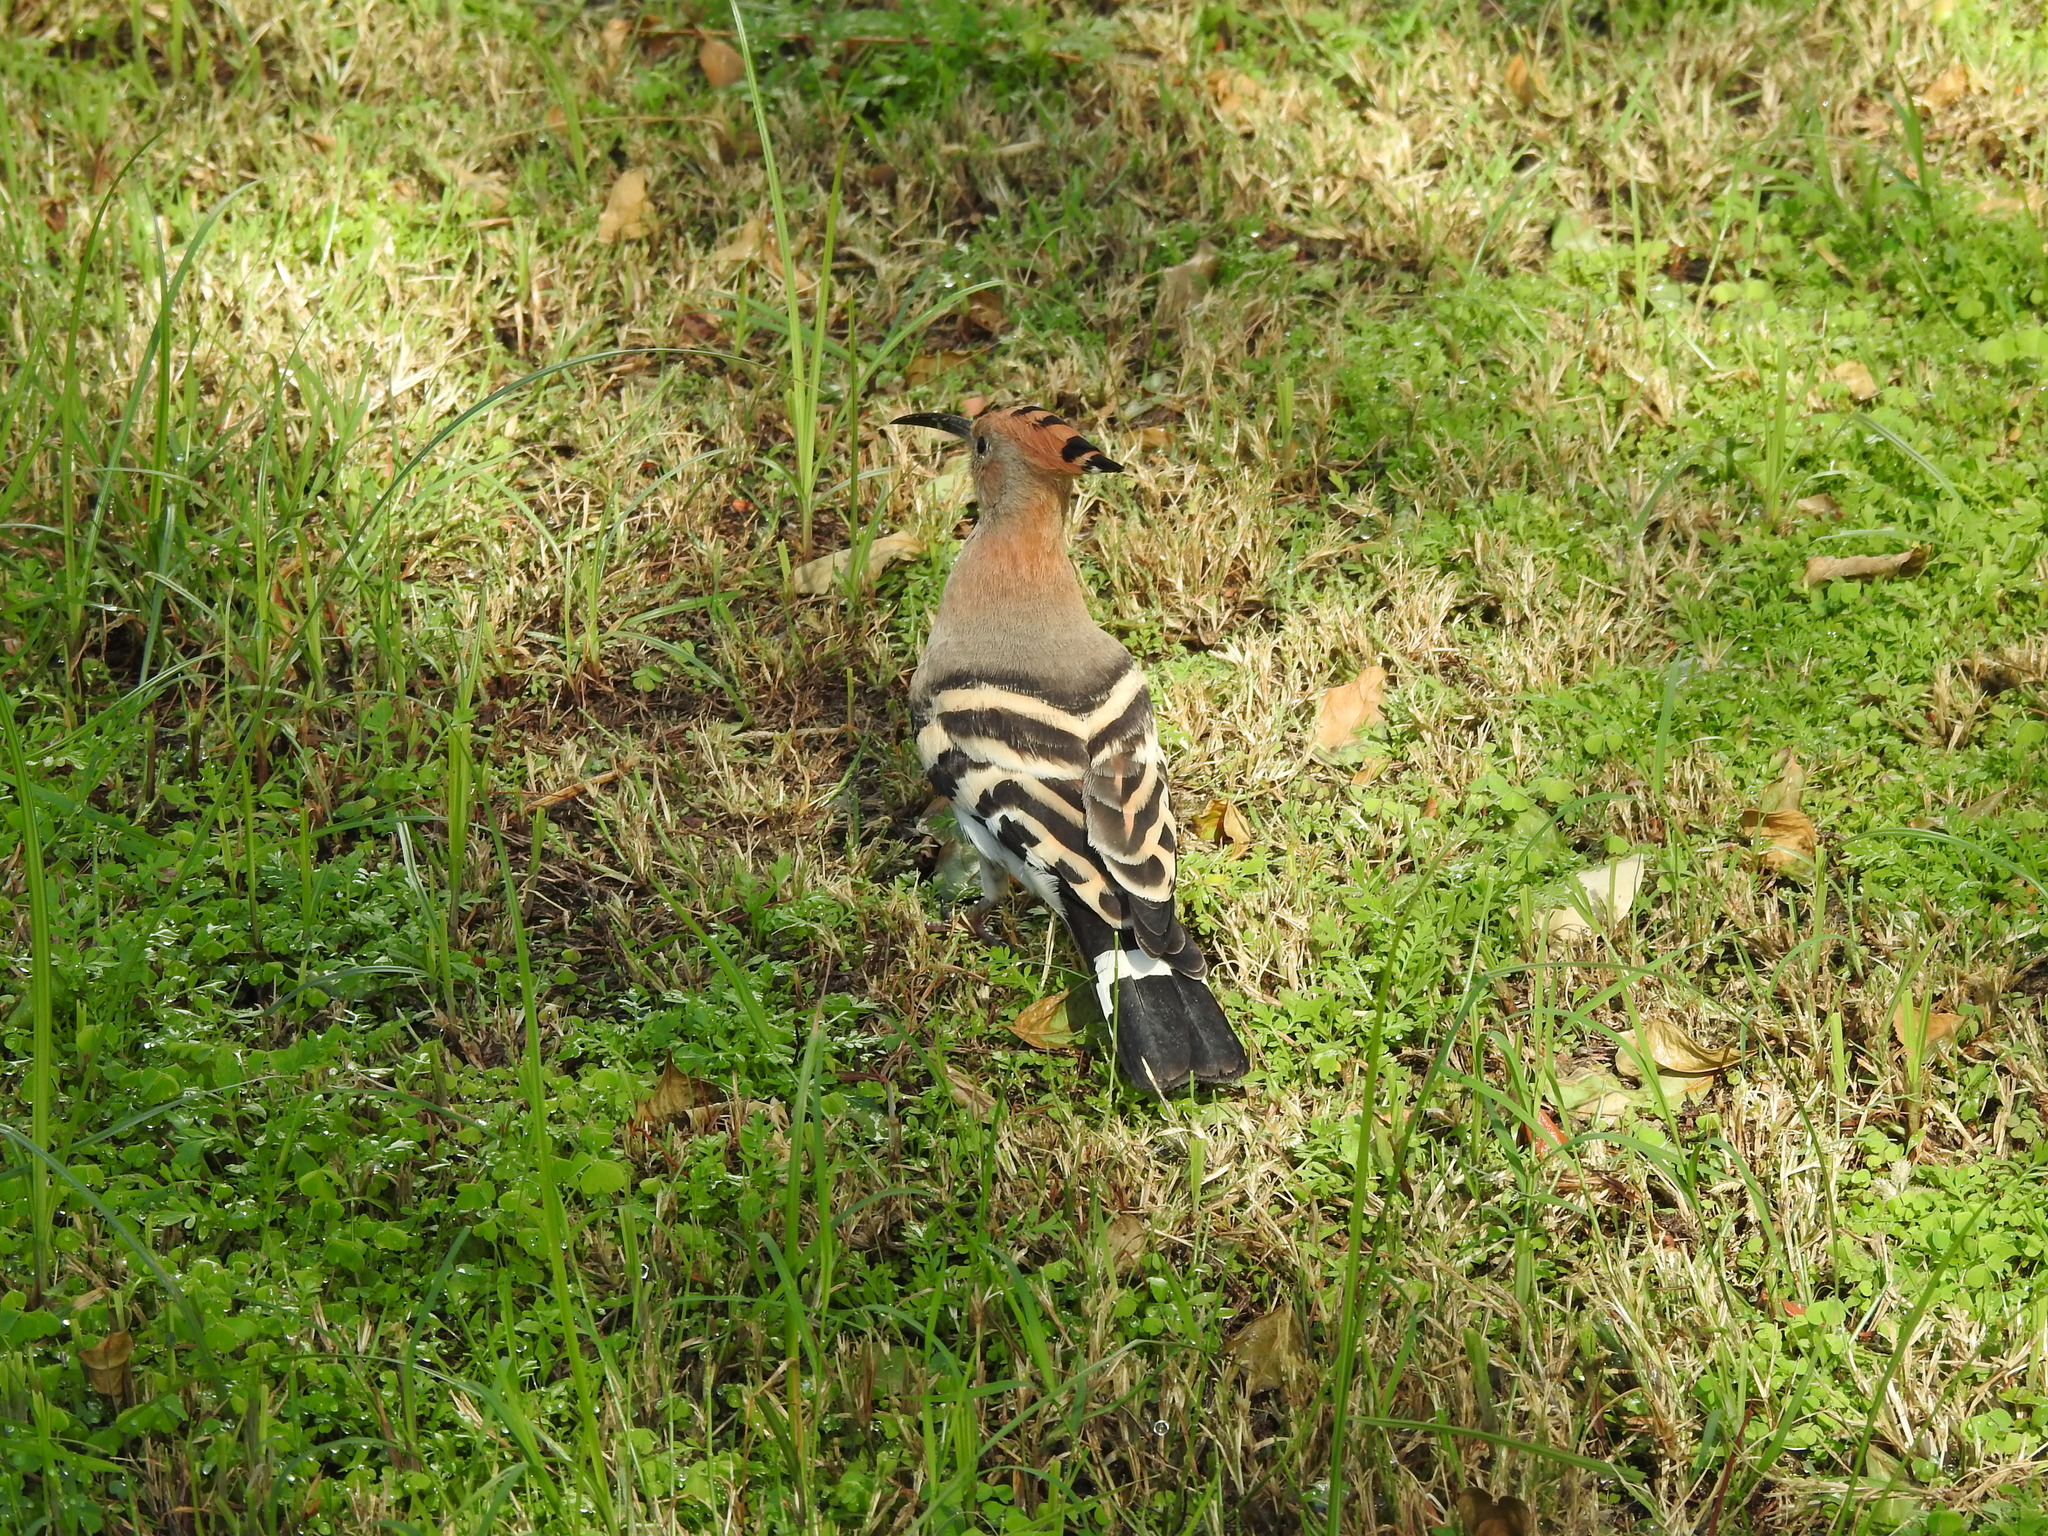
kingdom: Animalia
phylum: Chordata
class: Aves
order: Bucerotiformes
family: Upupidae
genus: Upupa
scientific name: Upupa epops
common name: Eurasian hoopoe
